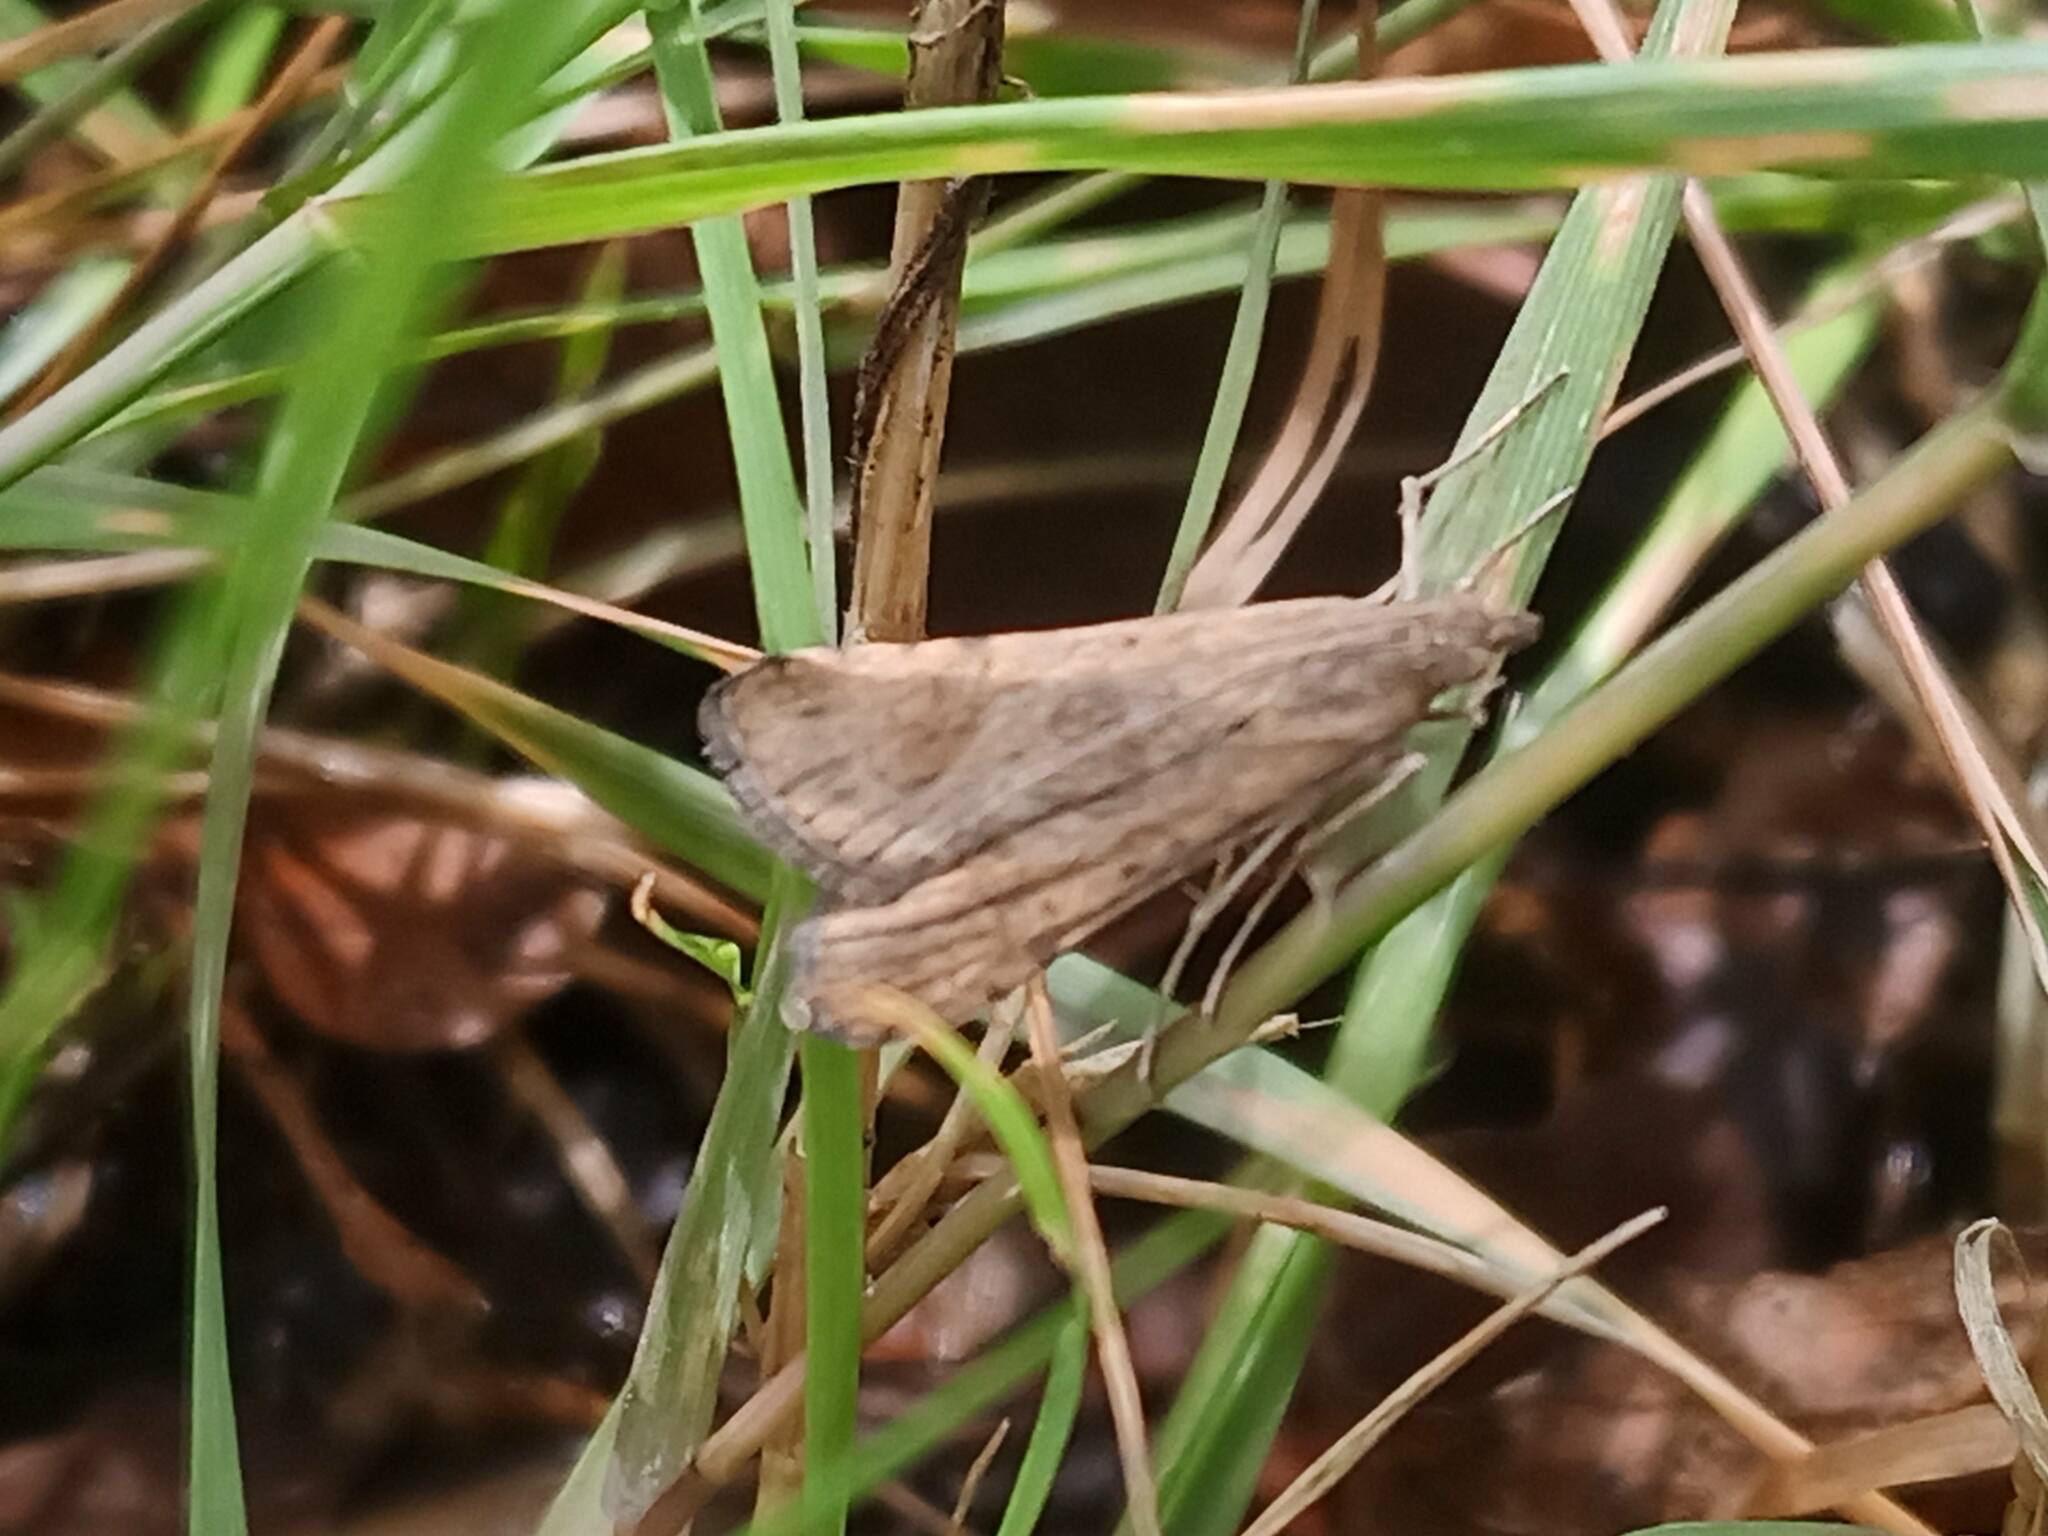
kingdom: Animalia
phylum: Arthropoda
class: Insecta
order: Lepidoptera
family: Crambidae
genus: Nomophila
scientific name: Nomophila noctuella
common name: Rush veneer
